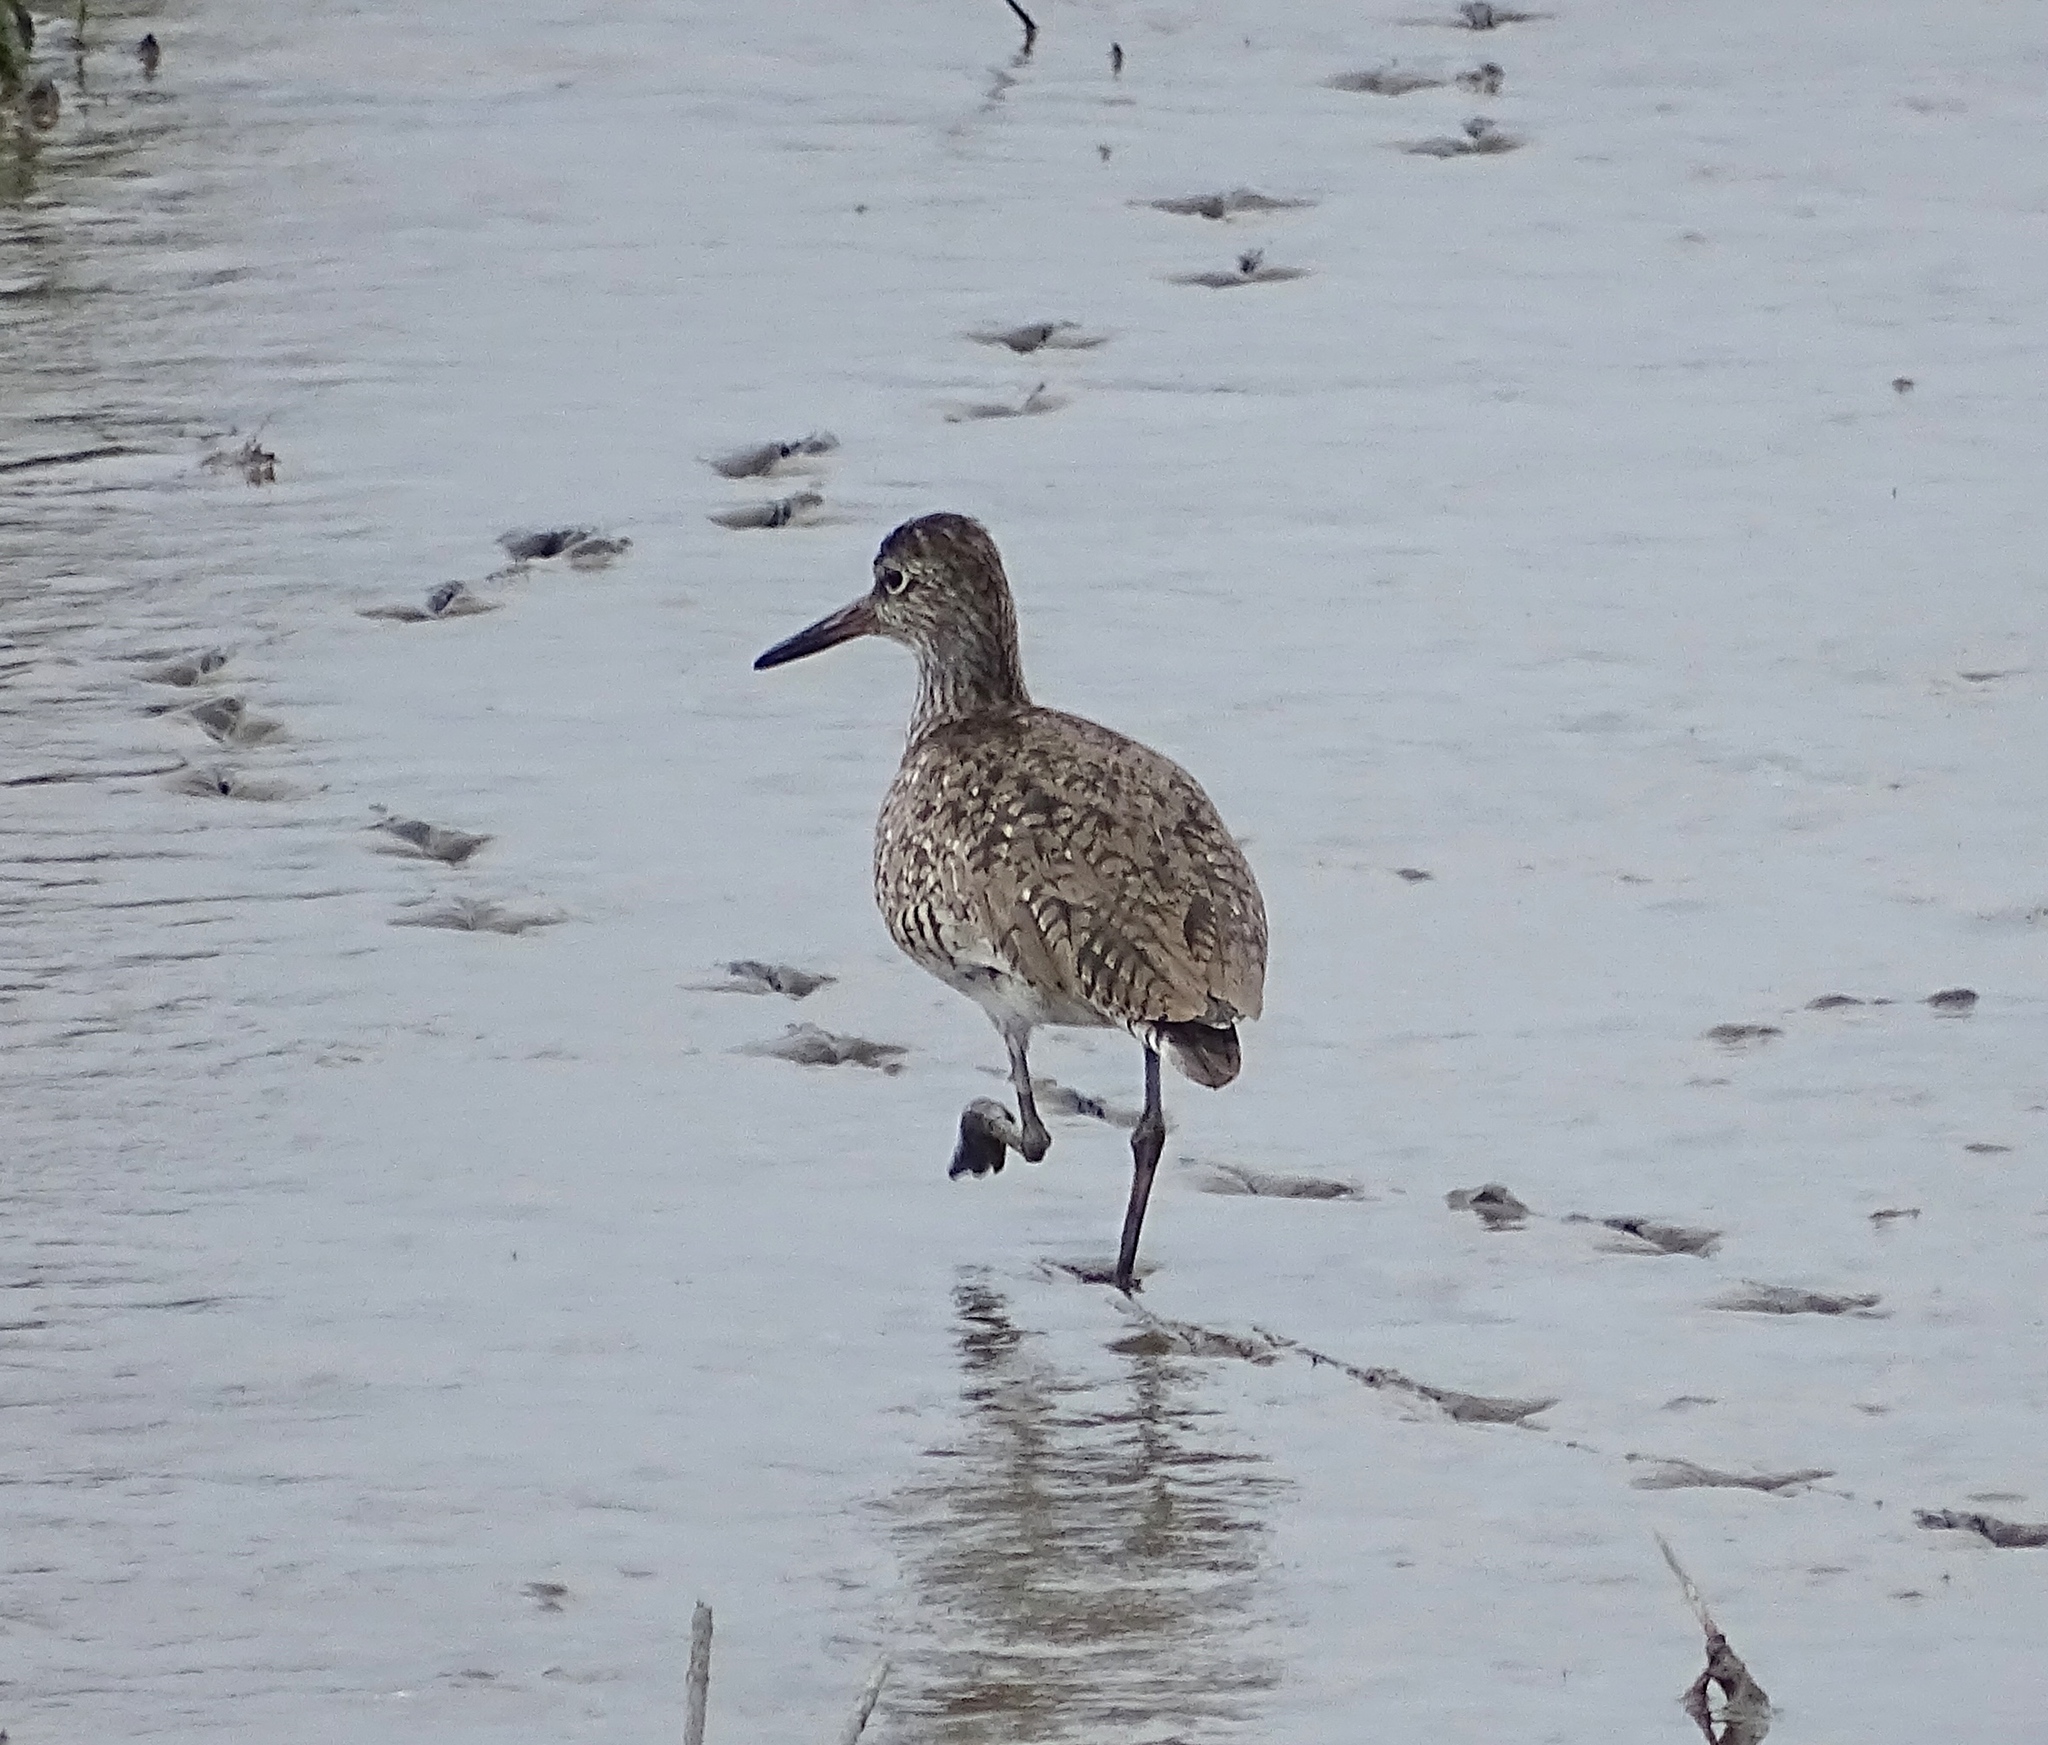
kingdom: Animalia
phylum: Chordata
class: Aves
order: Charadriiformes
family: Scolopacidae
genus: Tringa
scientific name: Tringa semipalmata
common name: Willet
